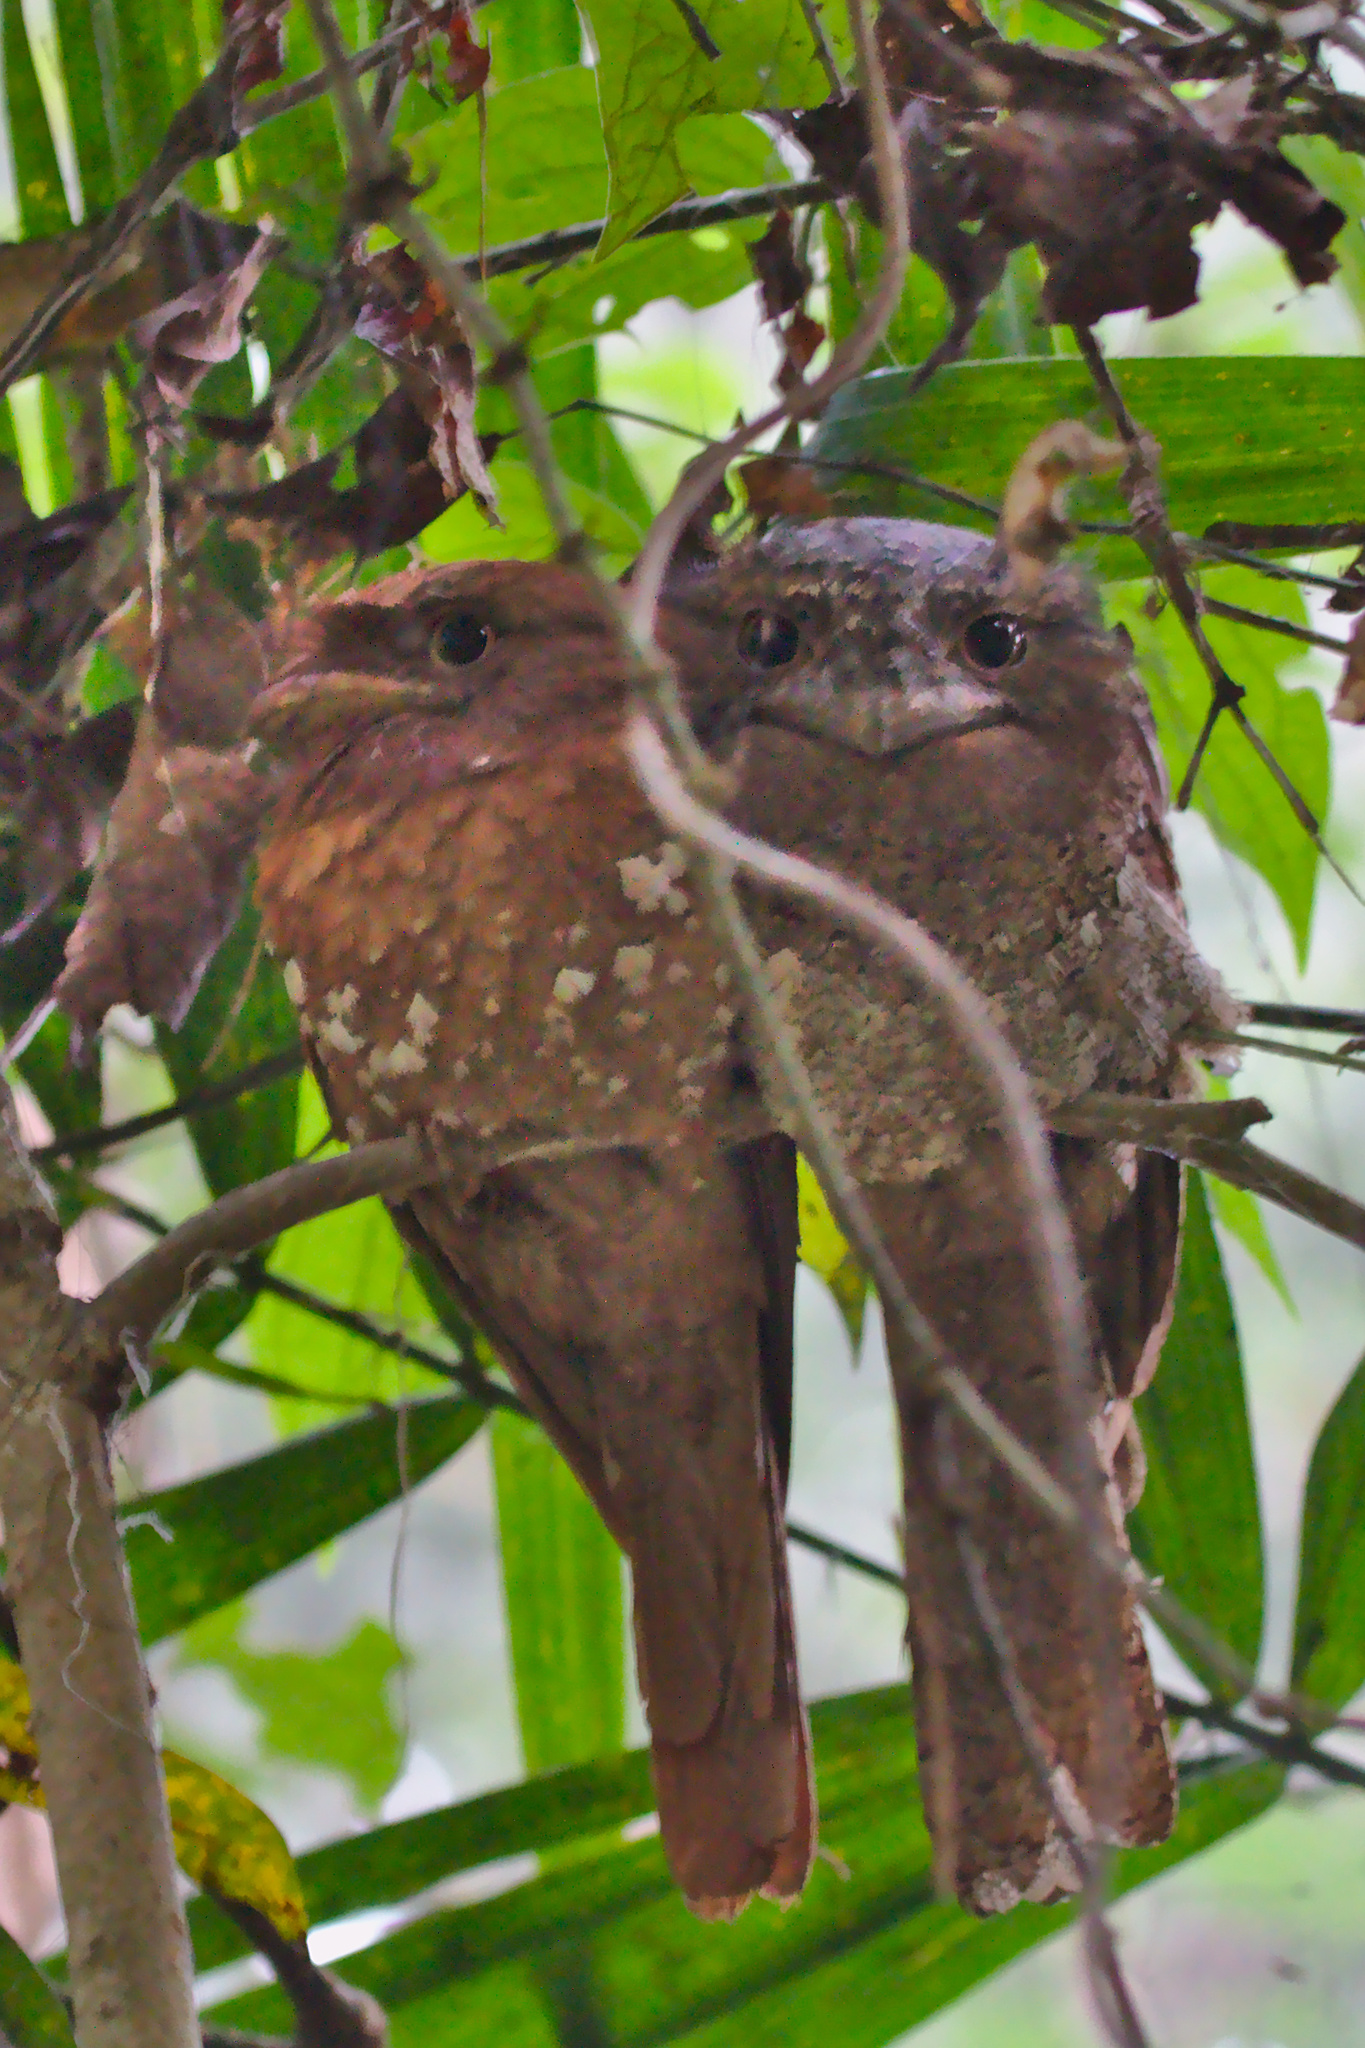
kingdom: Animalia
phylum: Chordata
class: Aves
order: Caprimulgiformes
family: Podargidae
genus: Batrachostomus
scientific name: Batrachostomus moniliger
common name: Sri lanka frogmouth
